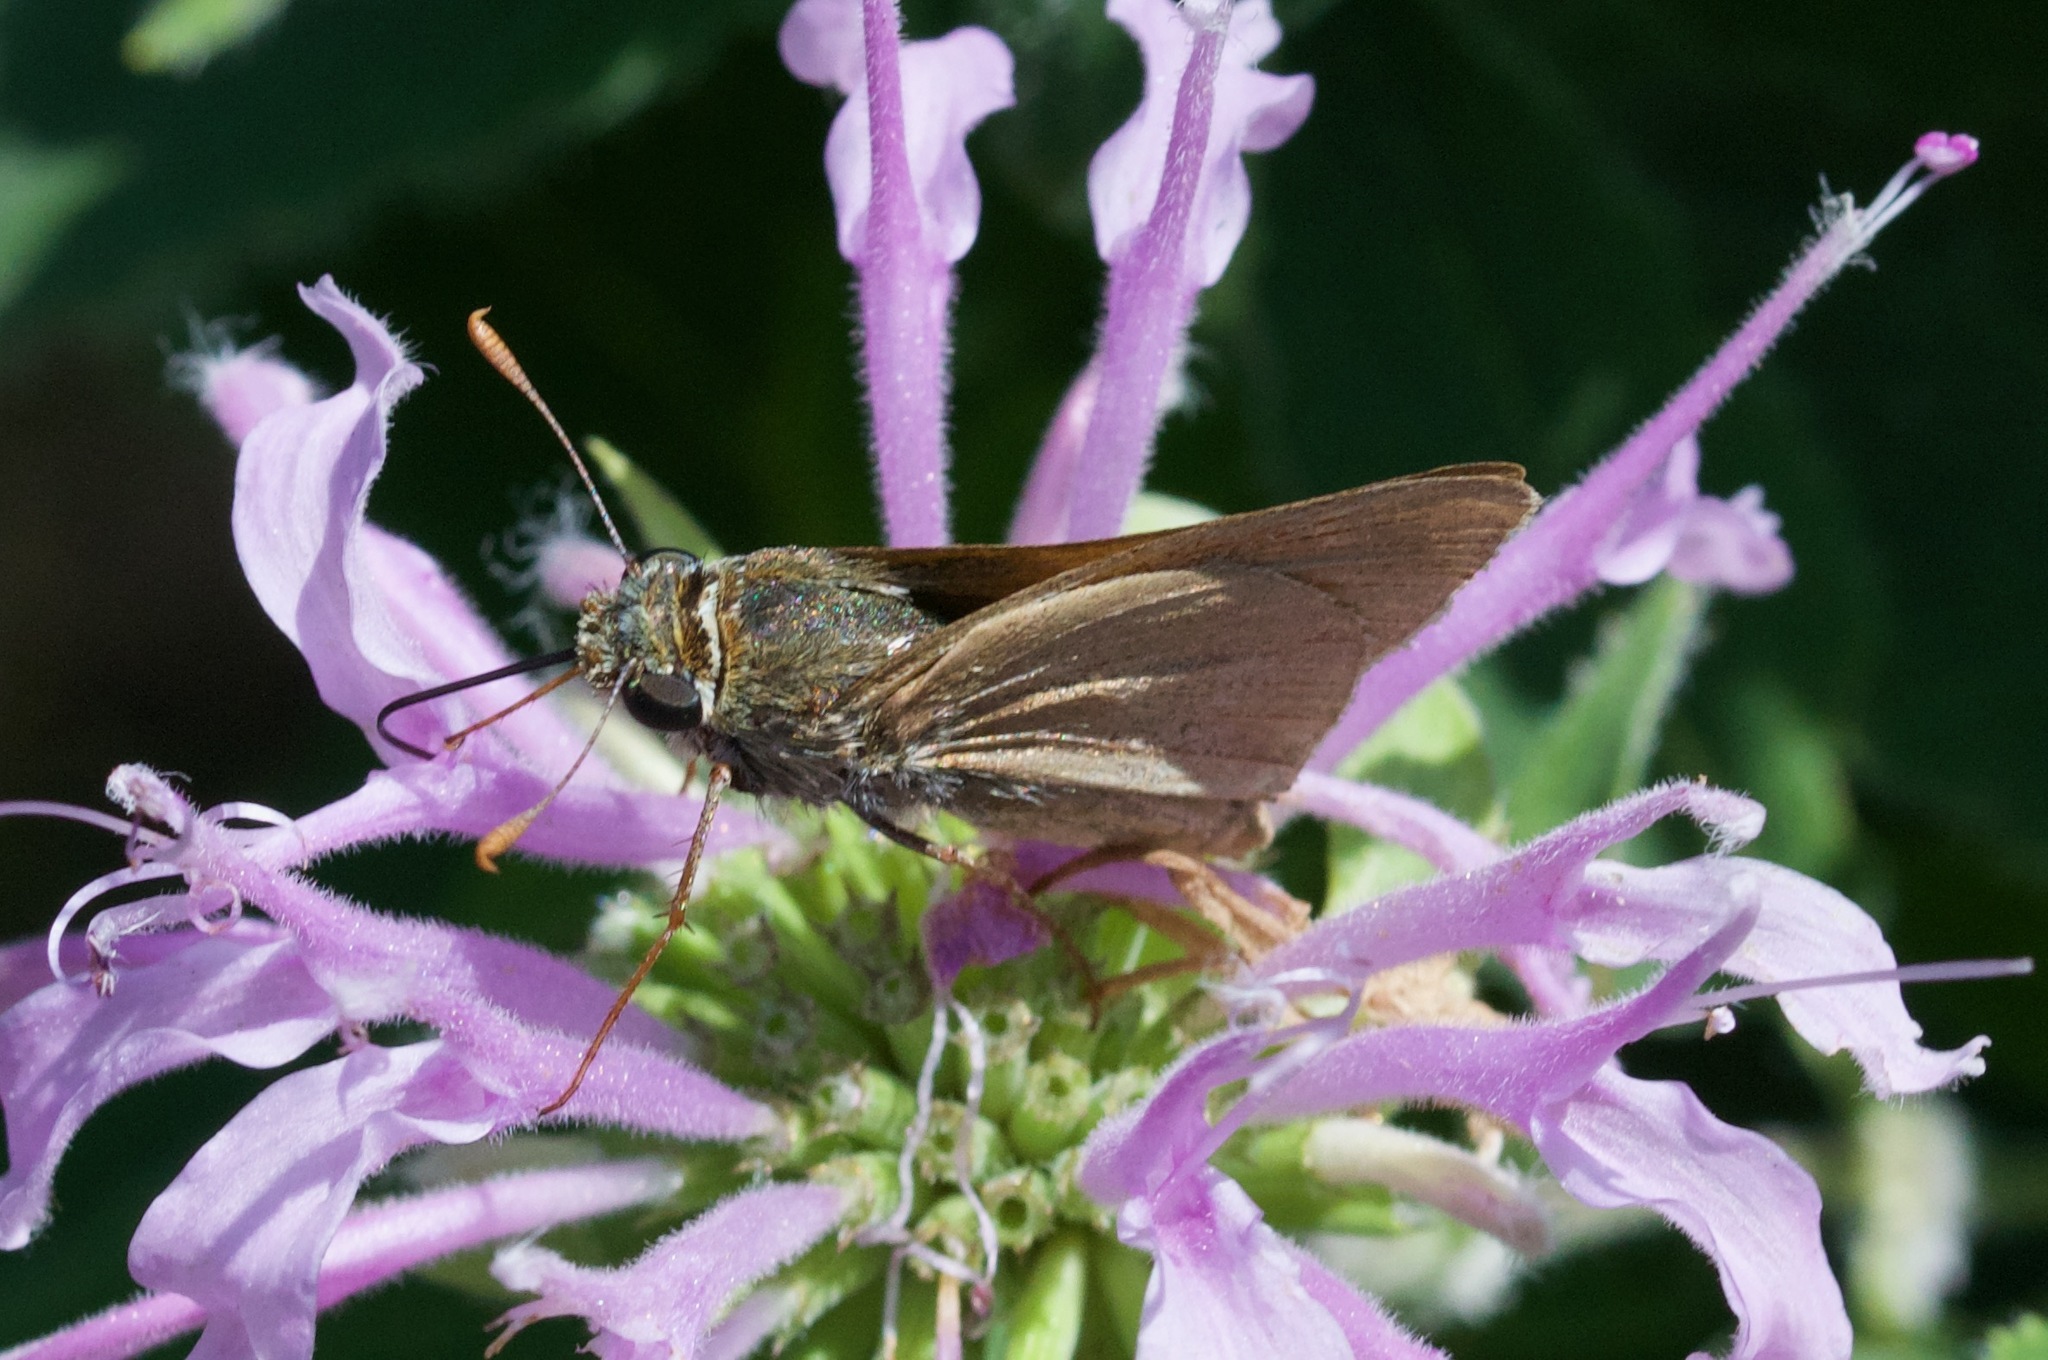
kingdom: Animalia
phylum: Arthropoda
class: Insecta
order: Lepidoptera
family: Hesperiidae
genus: Euphyes
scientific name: Euphyes vestris
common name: Dun skipper
